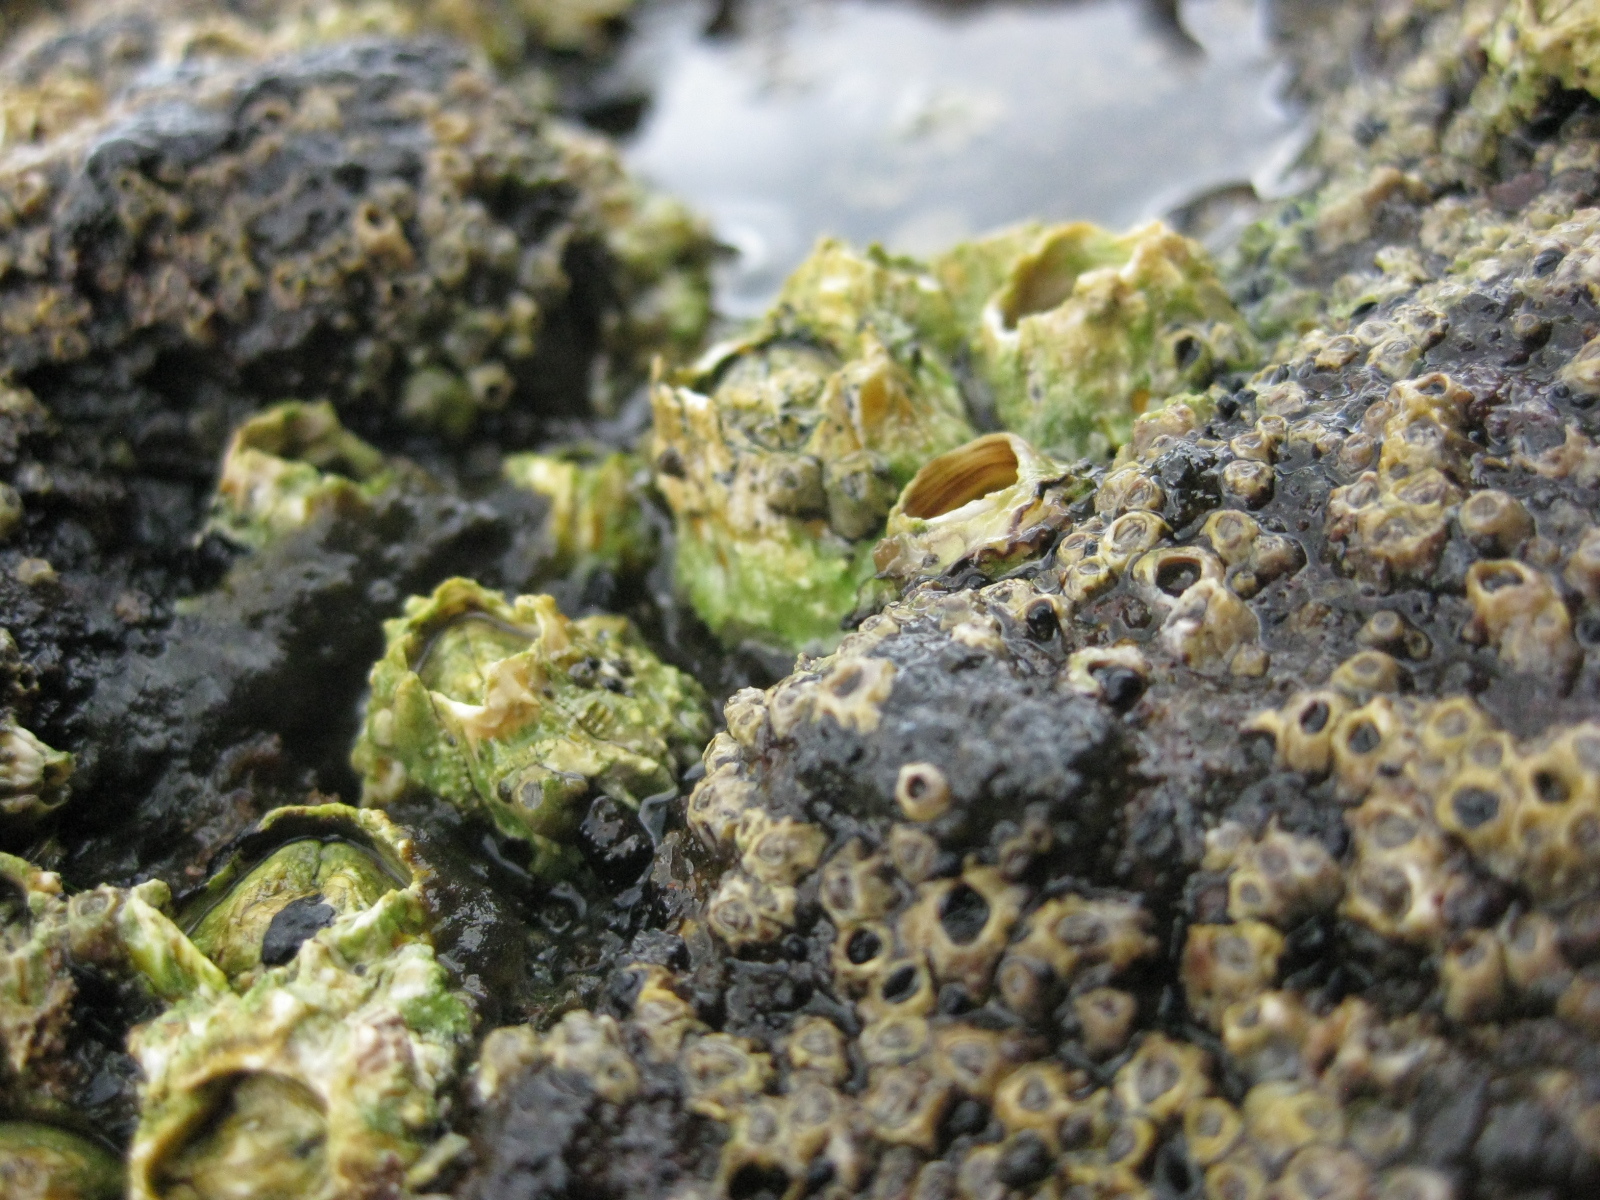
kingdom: Animalia
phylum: Arthropoda
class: Maxillopoda
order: Sessilia
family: Tetraclitidae
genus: Epopella
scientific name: Epopella plicata
